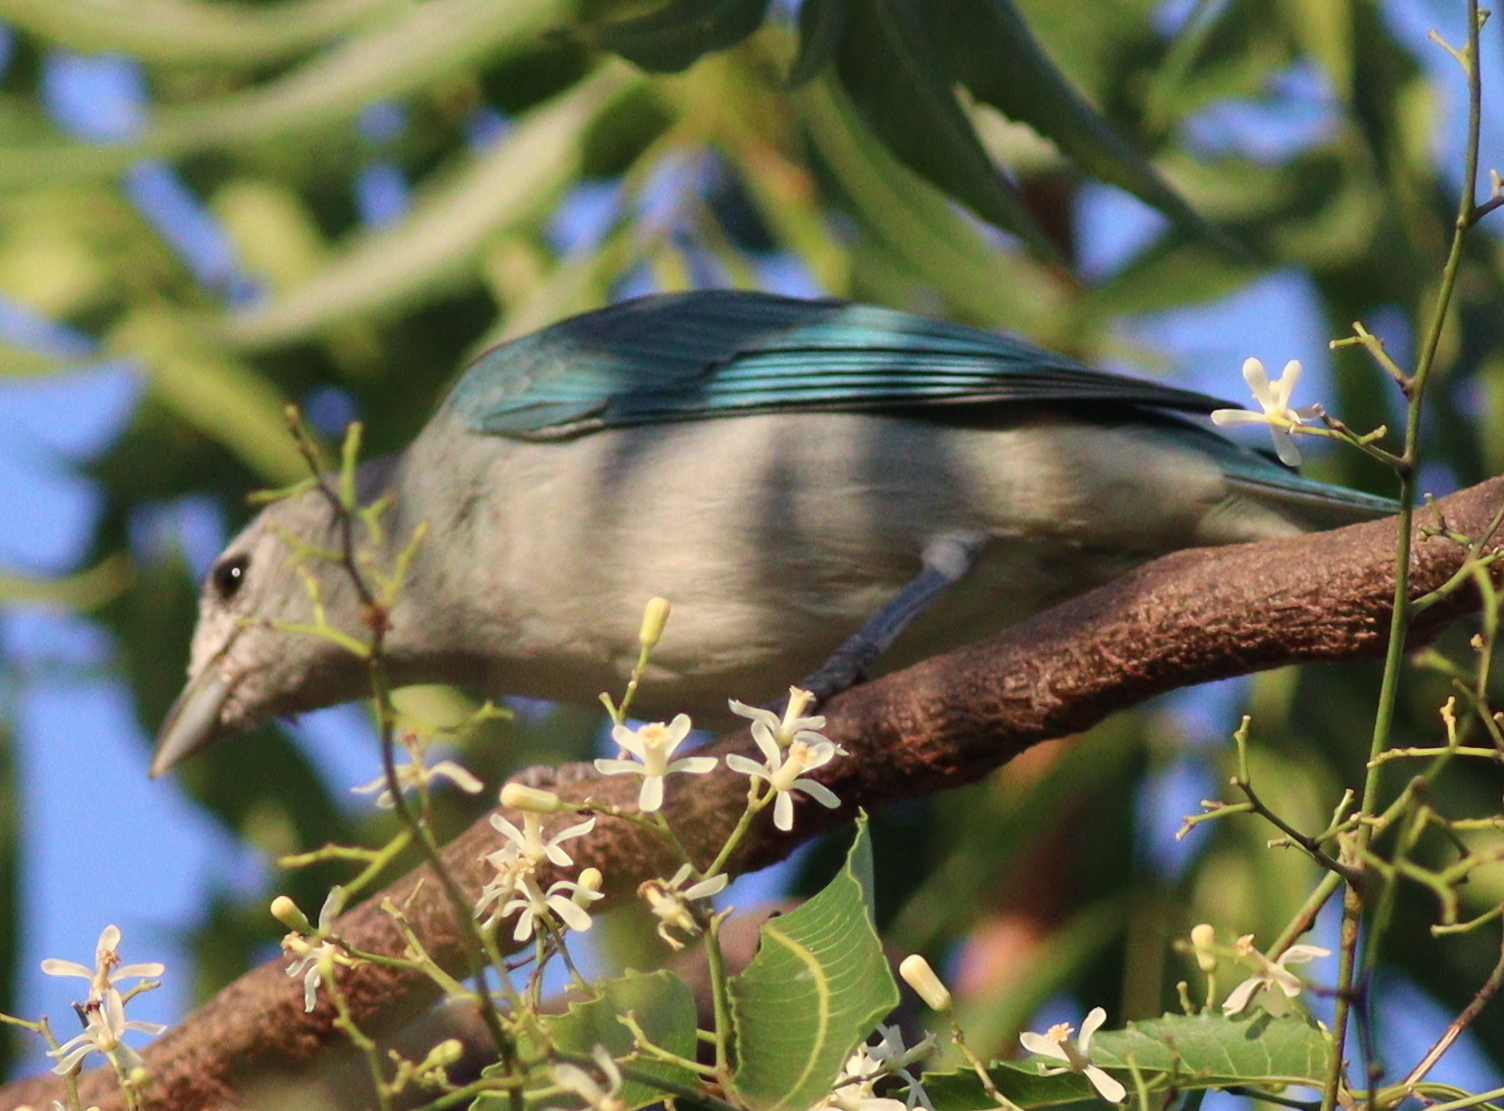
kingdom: Animalia
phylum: Chordata
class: Aves
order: Passeriformes
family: Thraupidae
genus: Thraupis
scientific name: Thraupis sayaca
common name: Sayaca tanager
